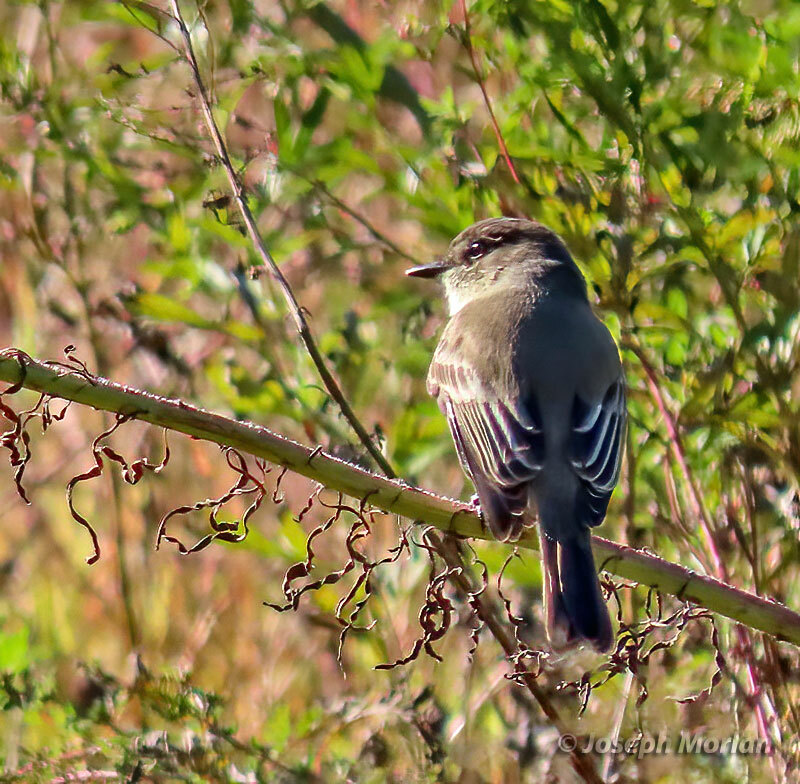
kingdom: Animalia
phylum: Chordata
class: Aves
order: Passeriformes
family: Tyrannidae
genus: Sayornis
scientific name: Sayornis phoebe
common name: Eastern phoebe
